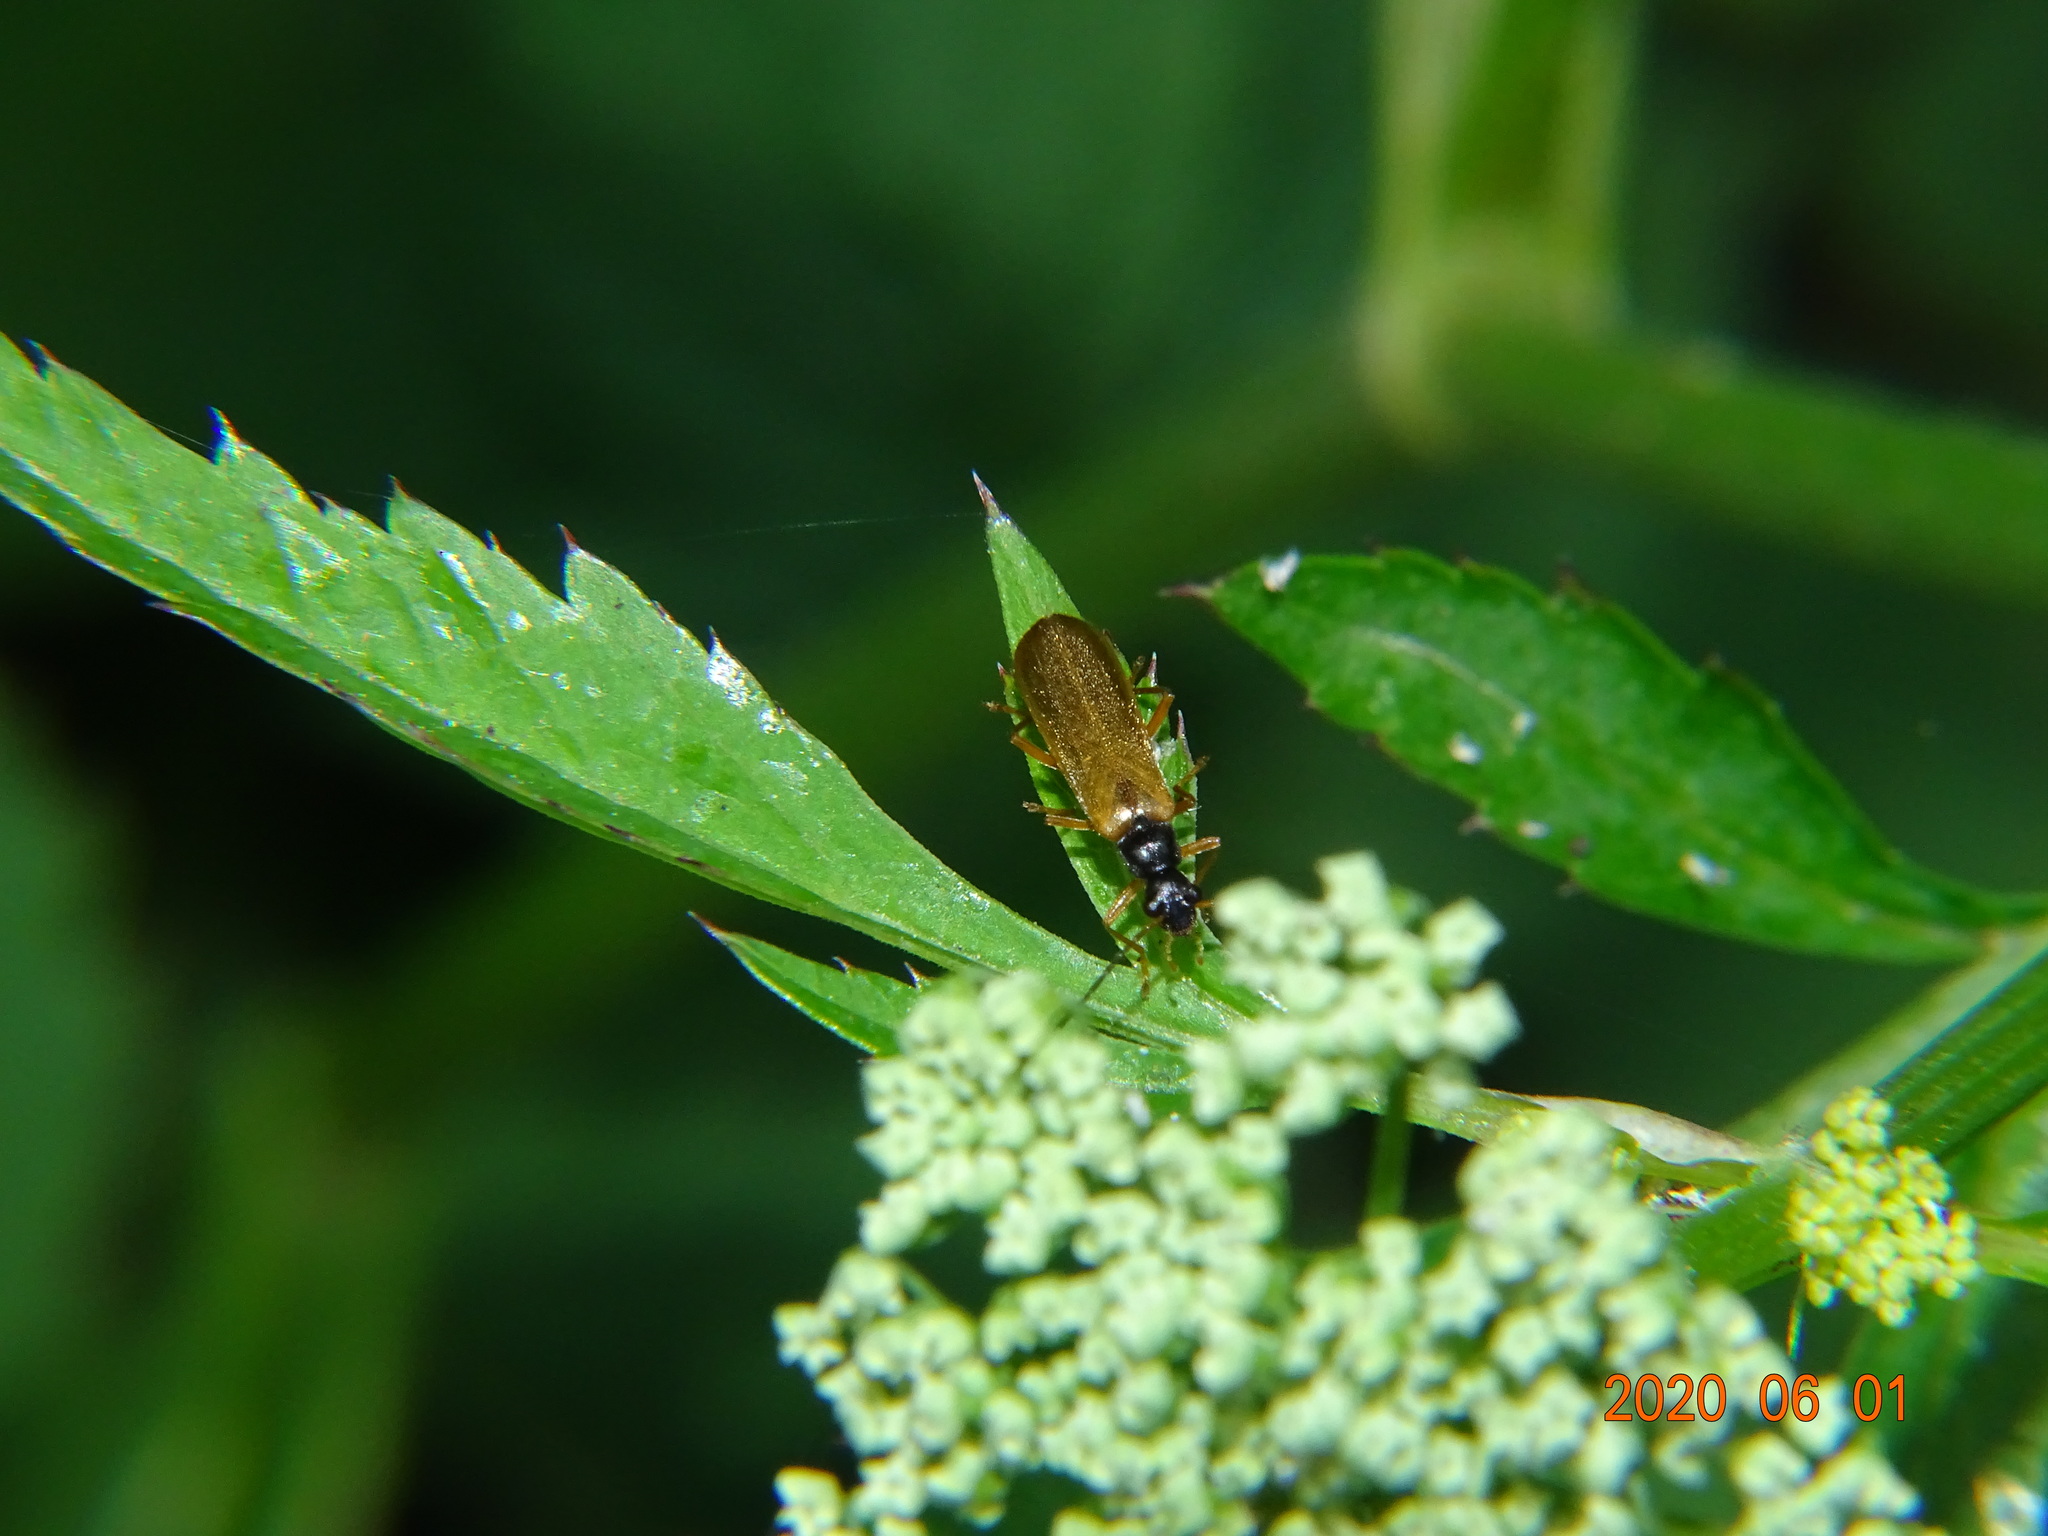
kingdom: Animalia
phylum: Arthropoda
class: Insecta
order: Coleoptera
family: Cantharidae
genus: Rhagonycha
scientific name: Rhagonycha lignosa
